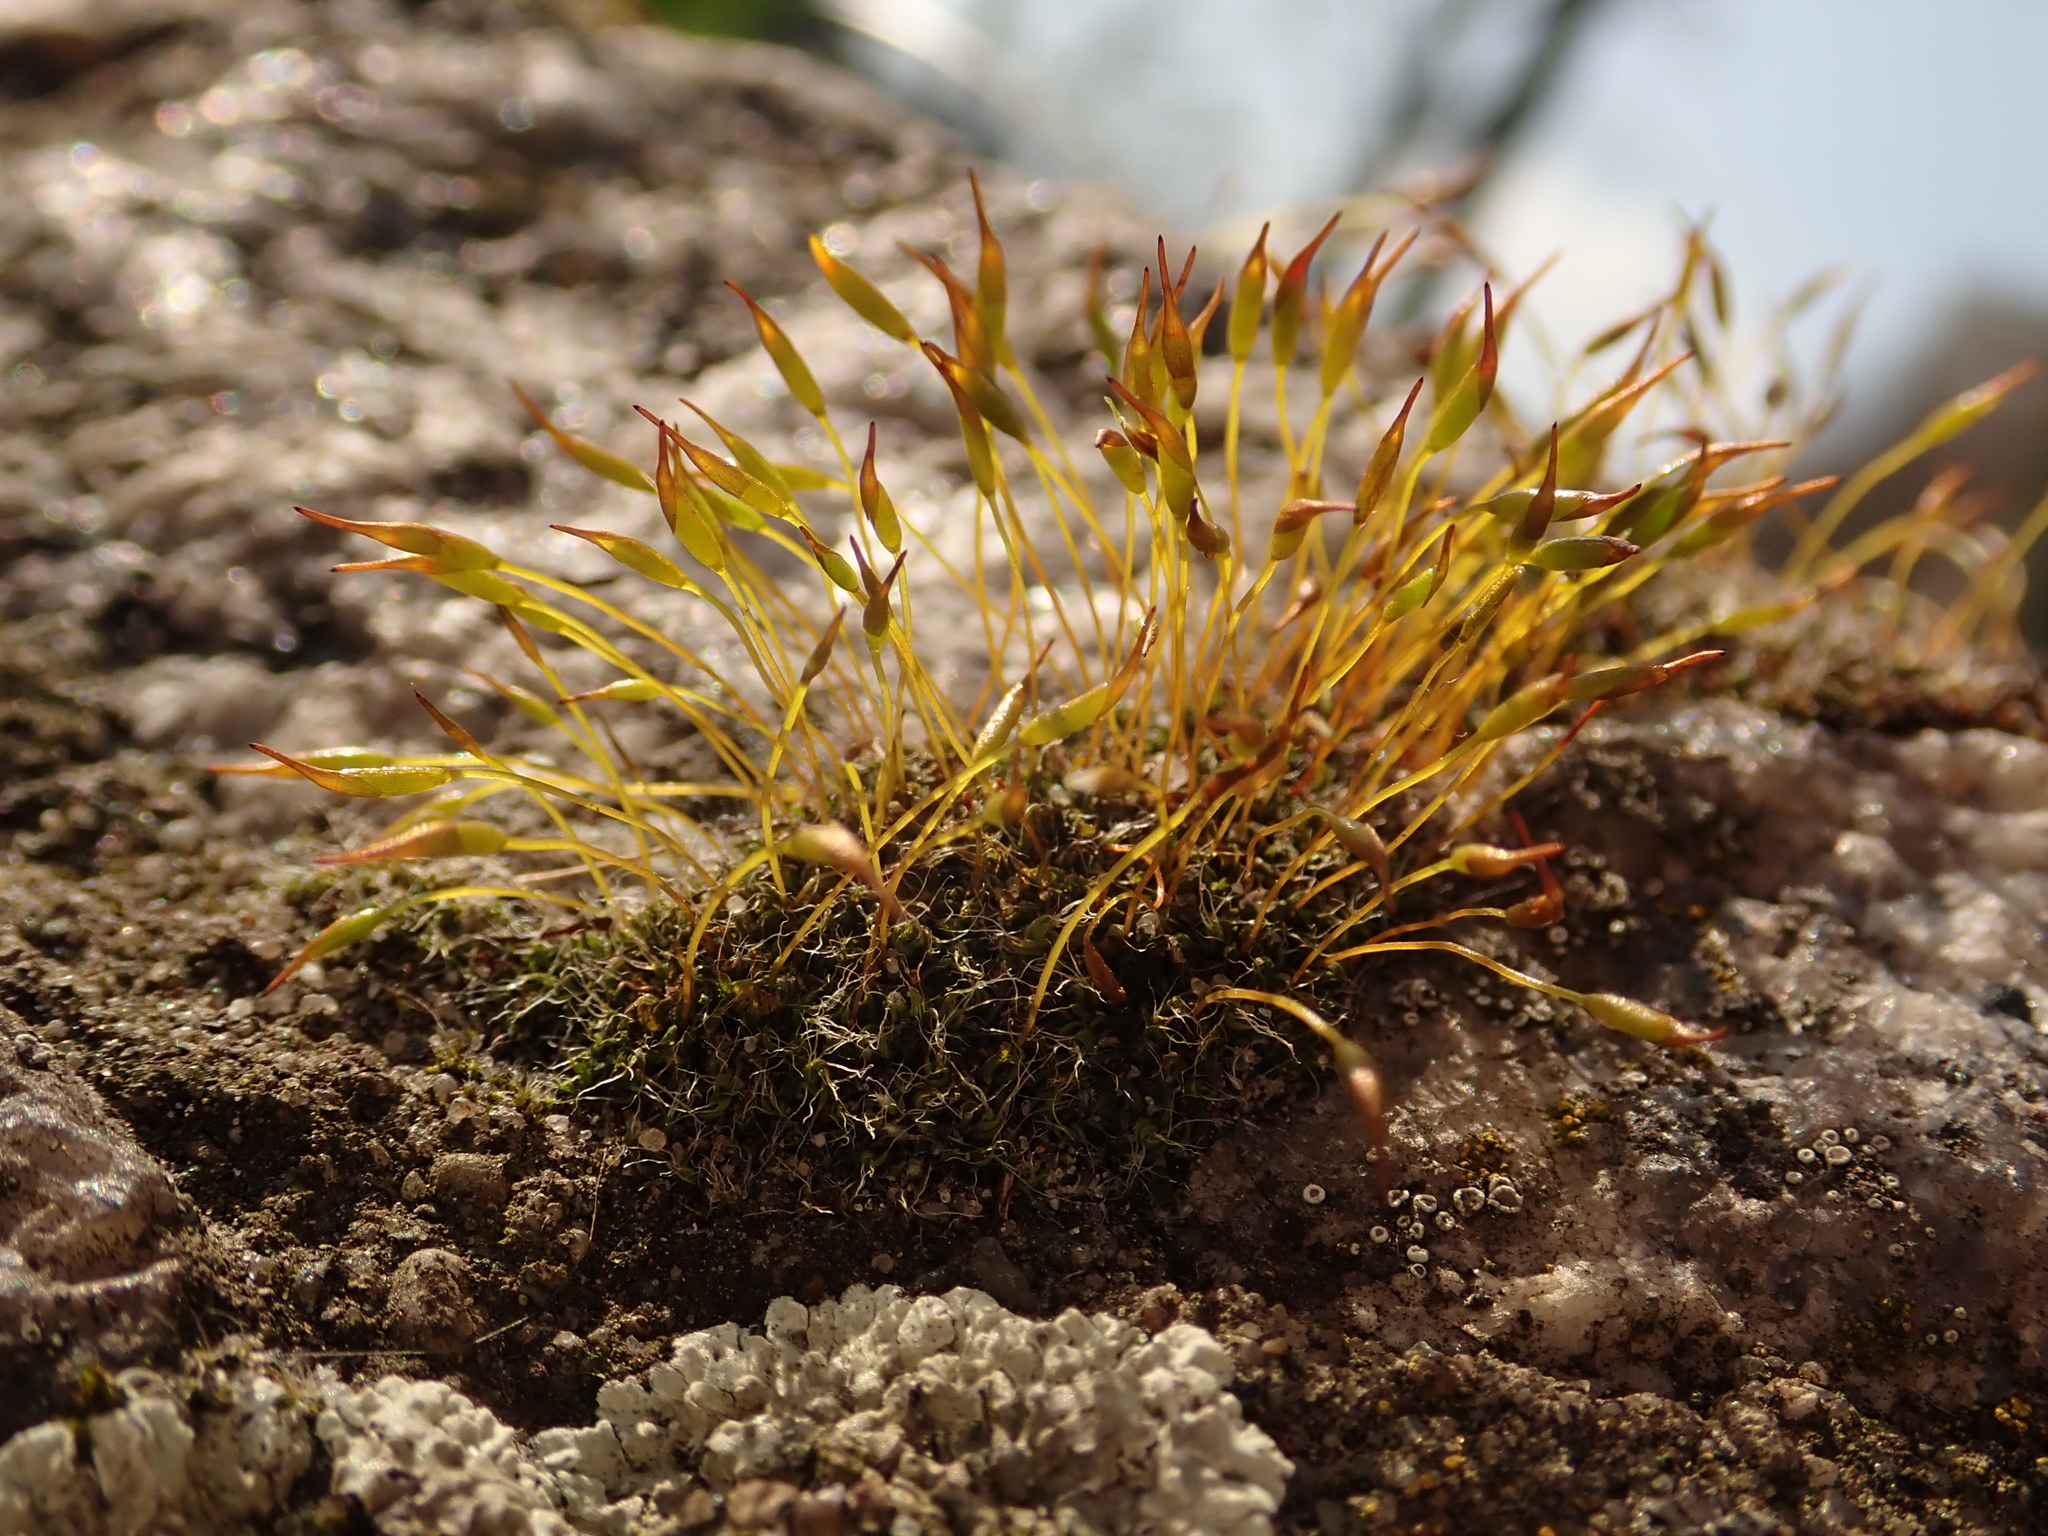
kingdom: Plantae
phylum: Bryophyta
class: Bryopsida
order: Pottiales
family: Pottiaceae
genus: Tortula
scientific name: Tortula muralis
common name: Wall screw-moss
